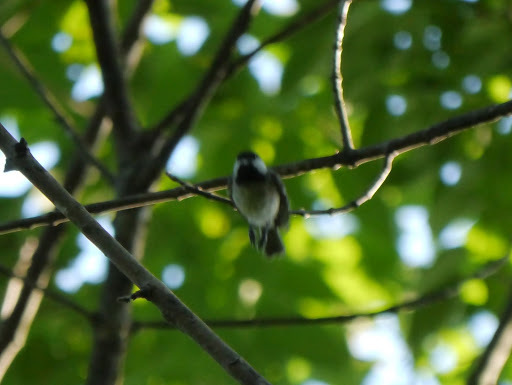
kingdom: Animalia
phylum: Chordata
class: Aves
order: Passeriformes
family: Paridae
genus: Poecile
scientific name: Poecile carolinensis
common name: Carolina chickadee
